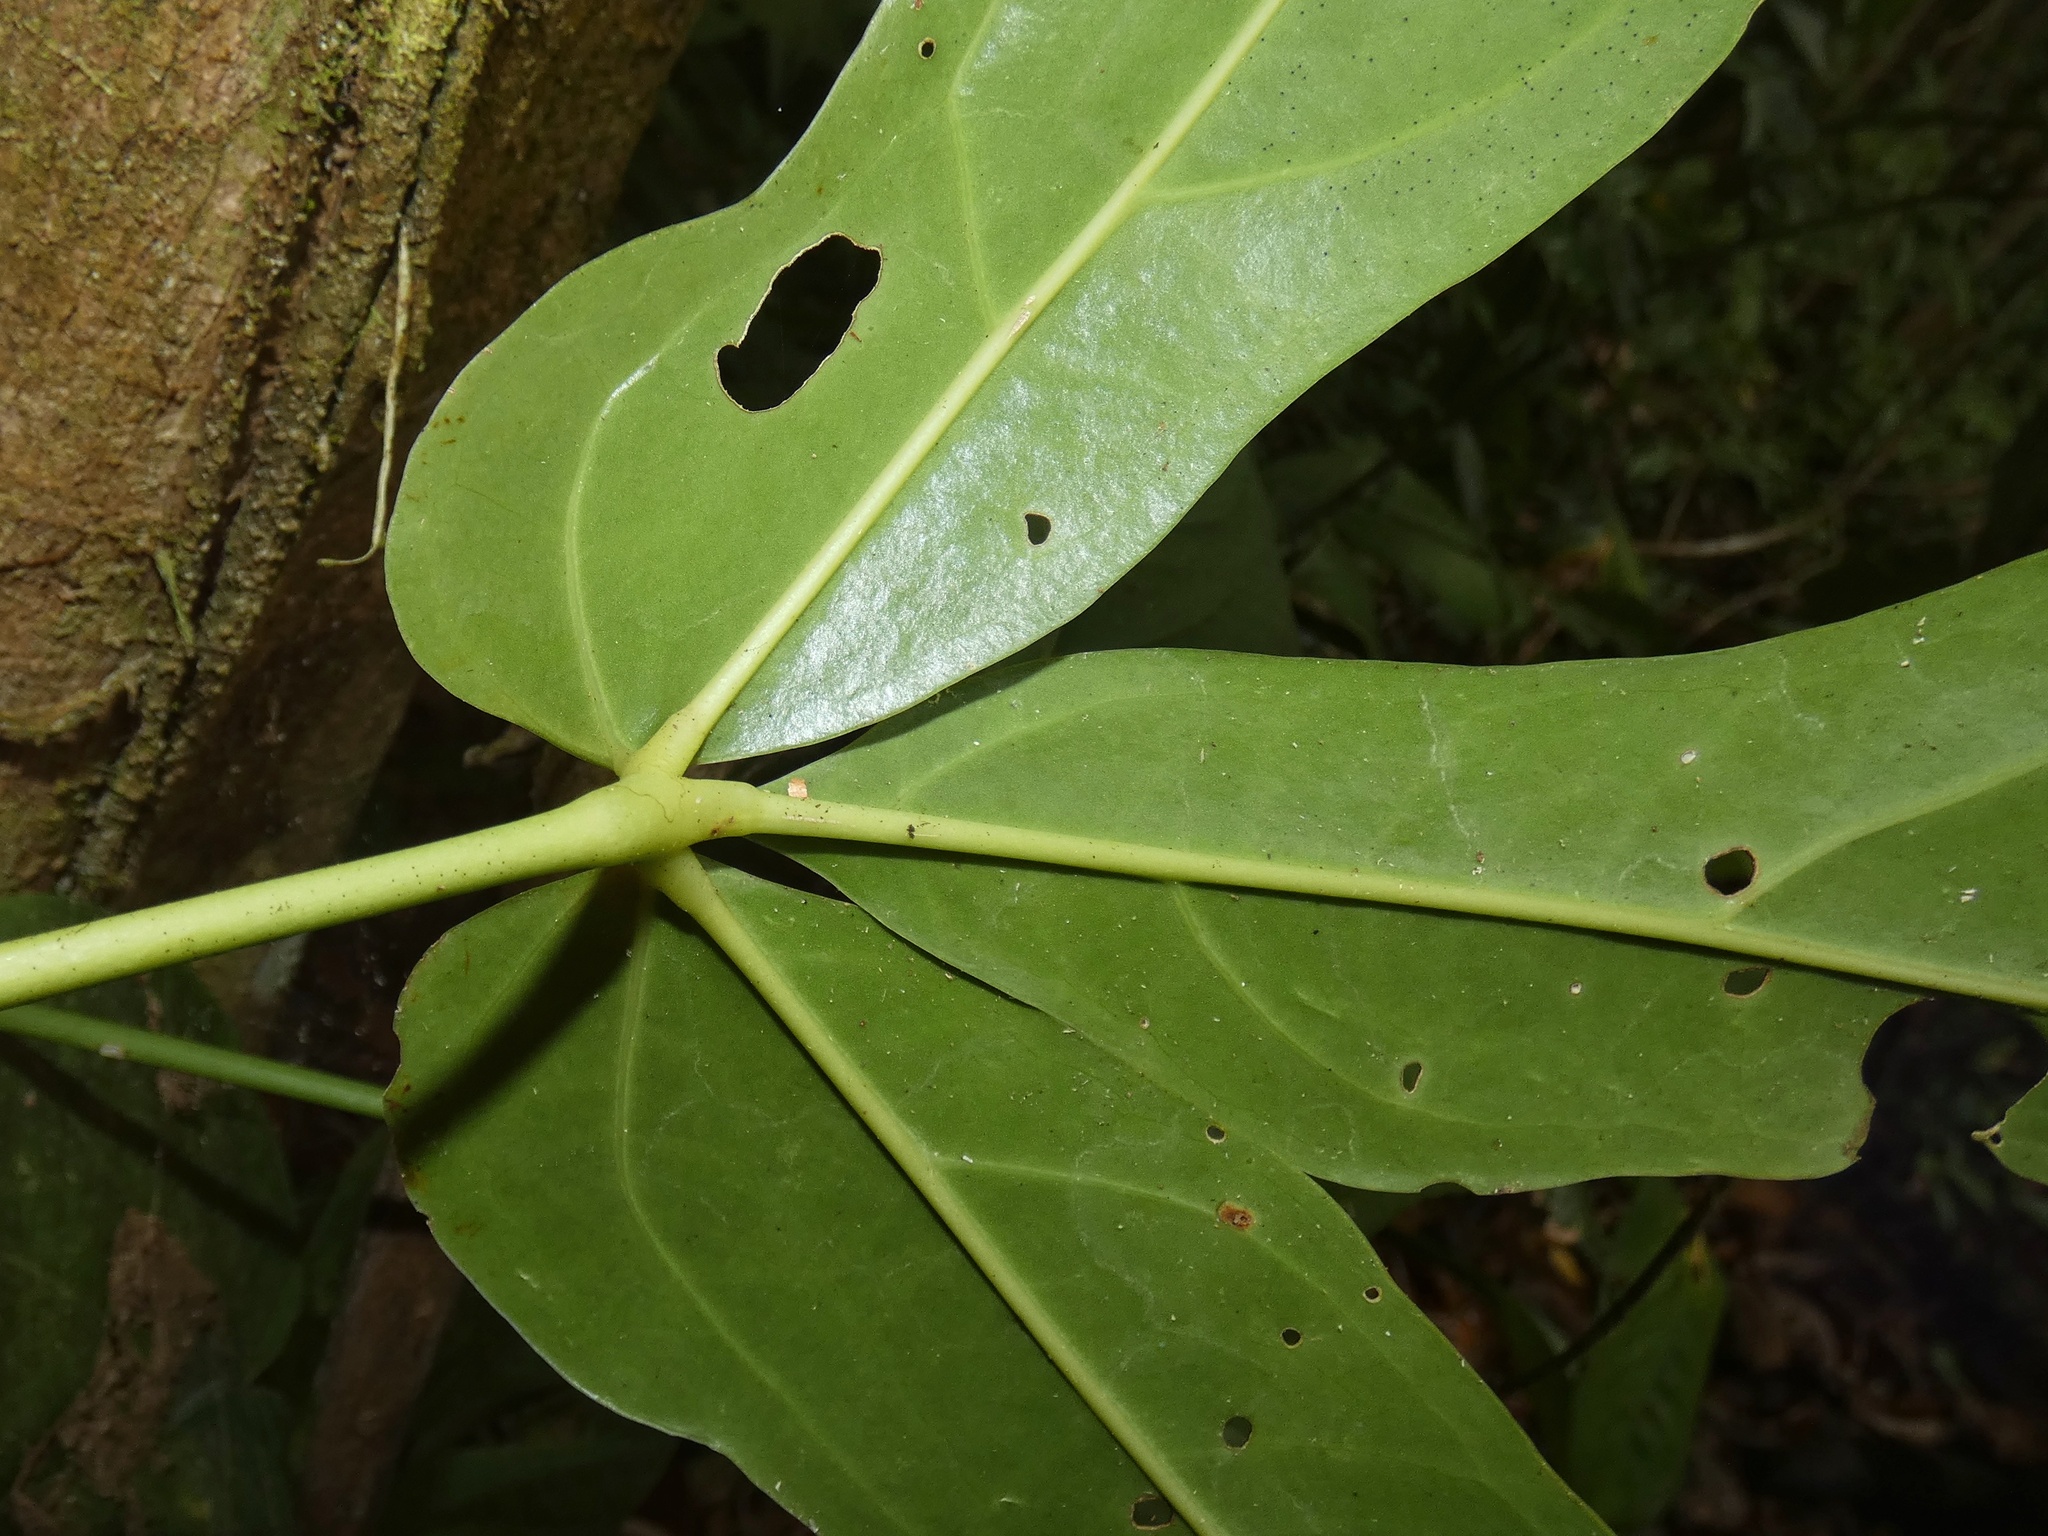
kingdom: Plantae
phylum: Tracheophyta
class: Liliopsida
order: Alismatales
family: Araceae
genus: Anthurium
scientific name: Anthurium clavigerum
